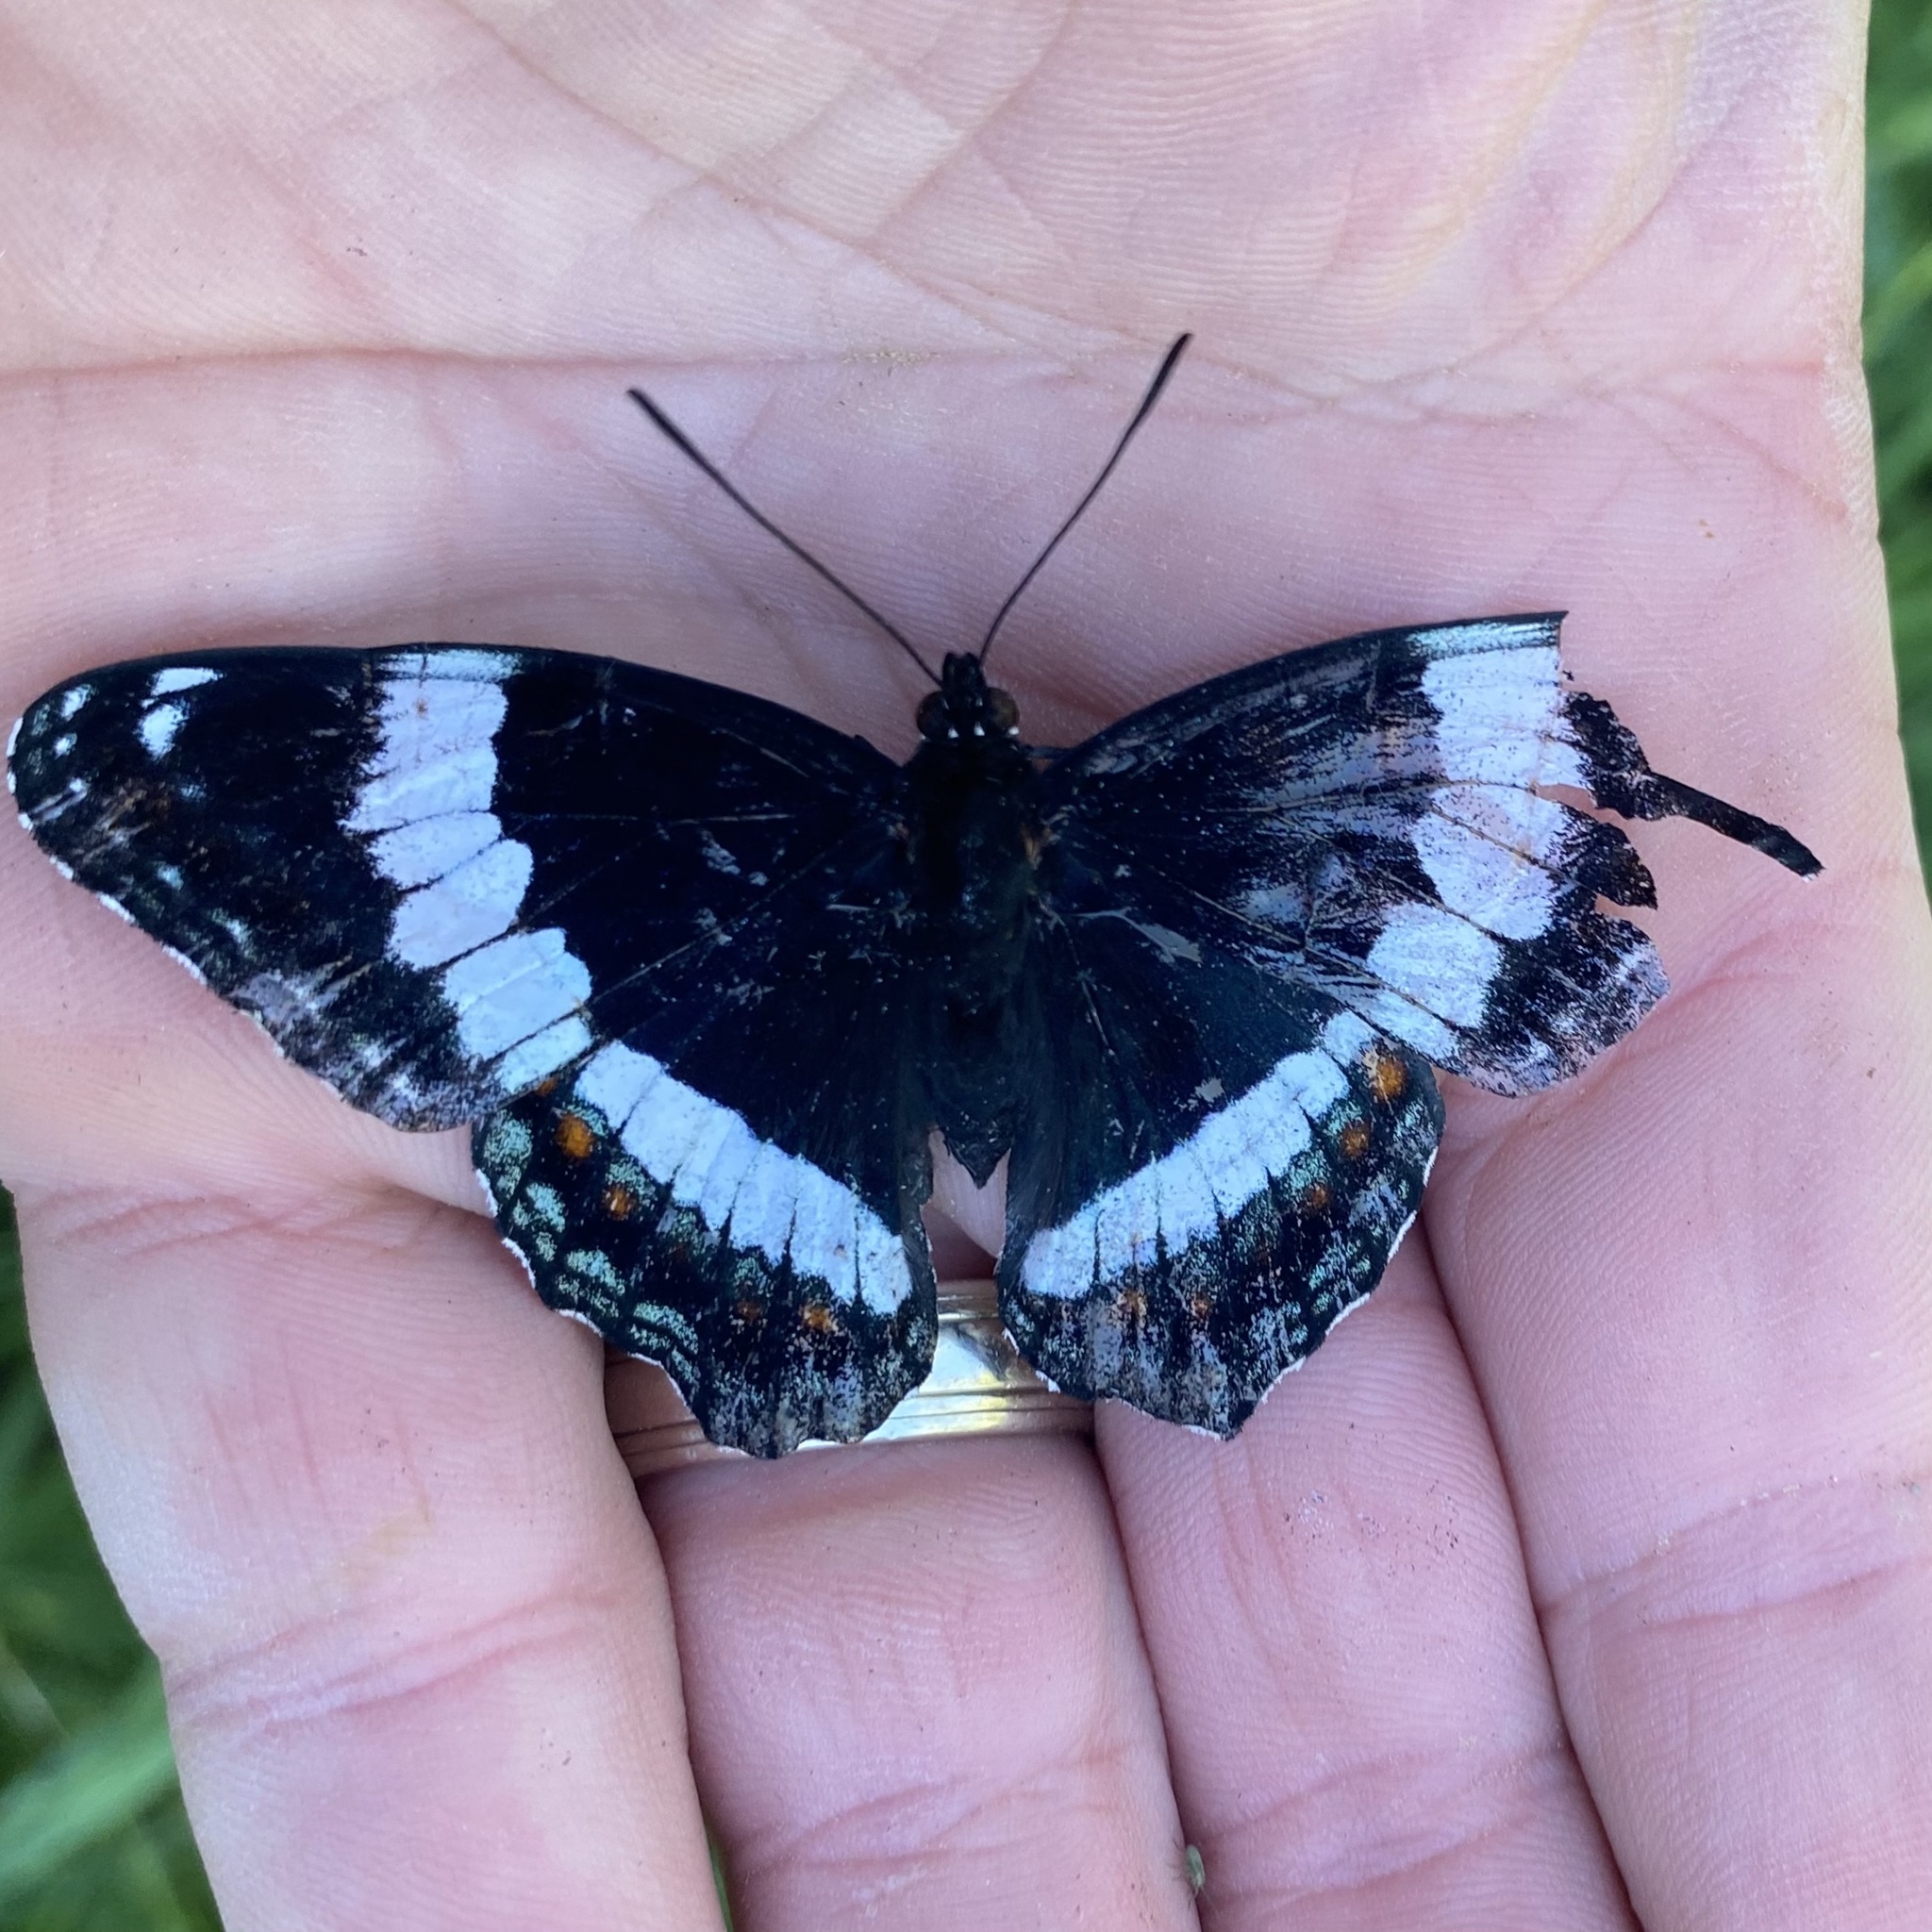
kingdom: Animalia
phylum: Arthropoda
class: Insecta
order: Lepidoptera
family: Nymphalidae
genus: Limenitis
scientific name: Limenitis arthemis
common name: Red-spotted admiral
